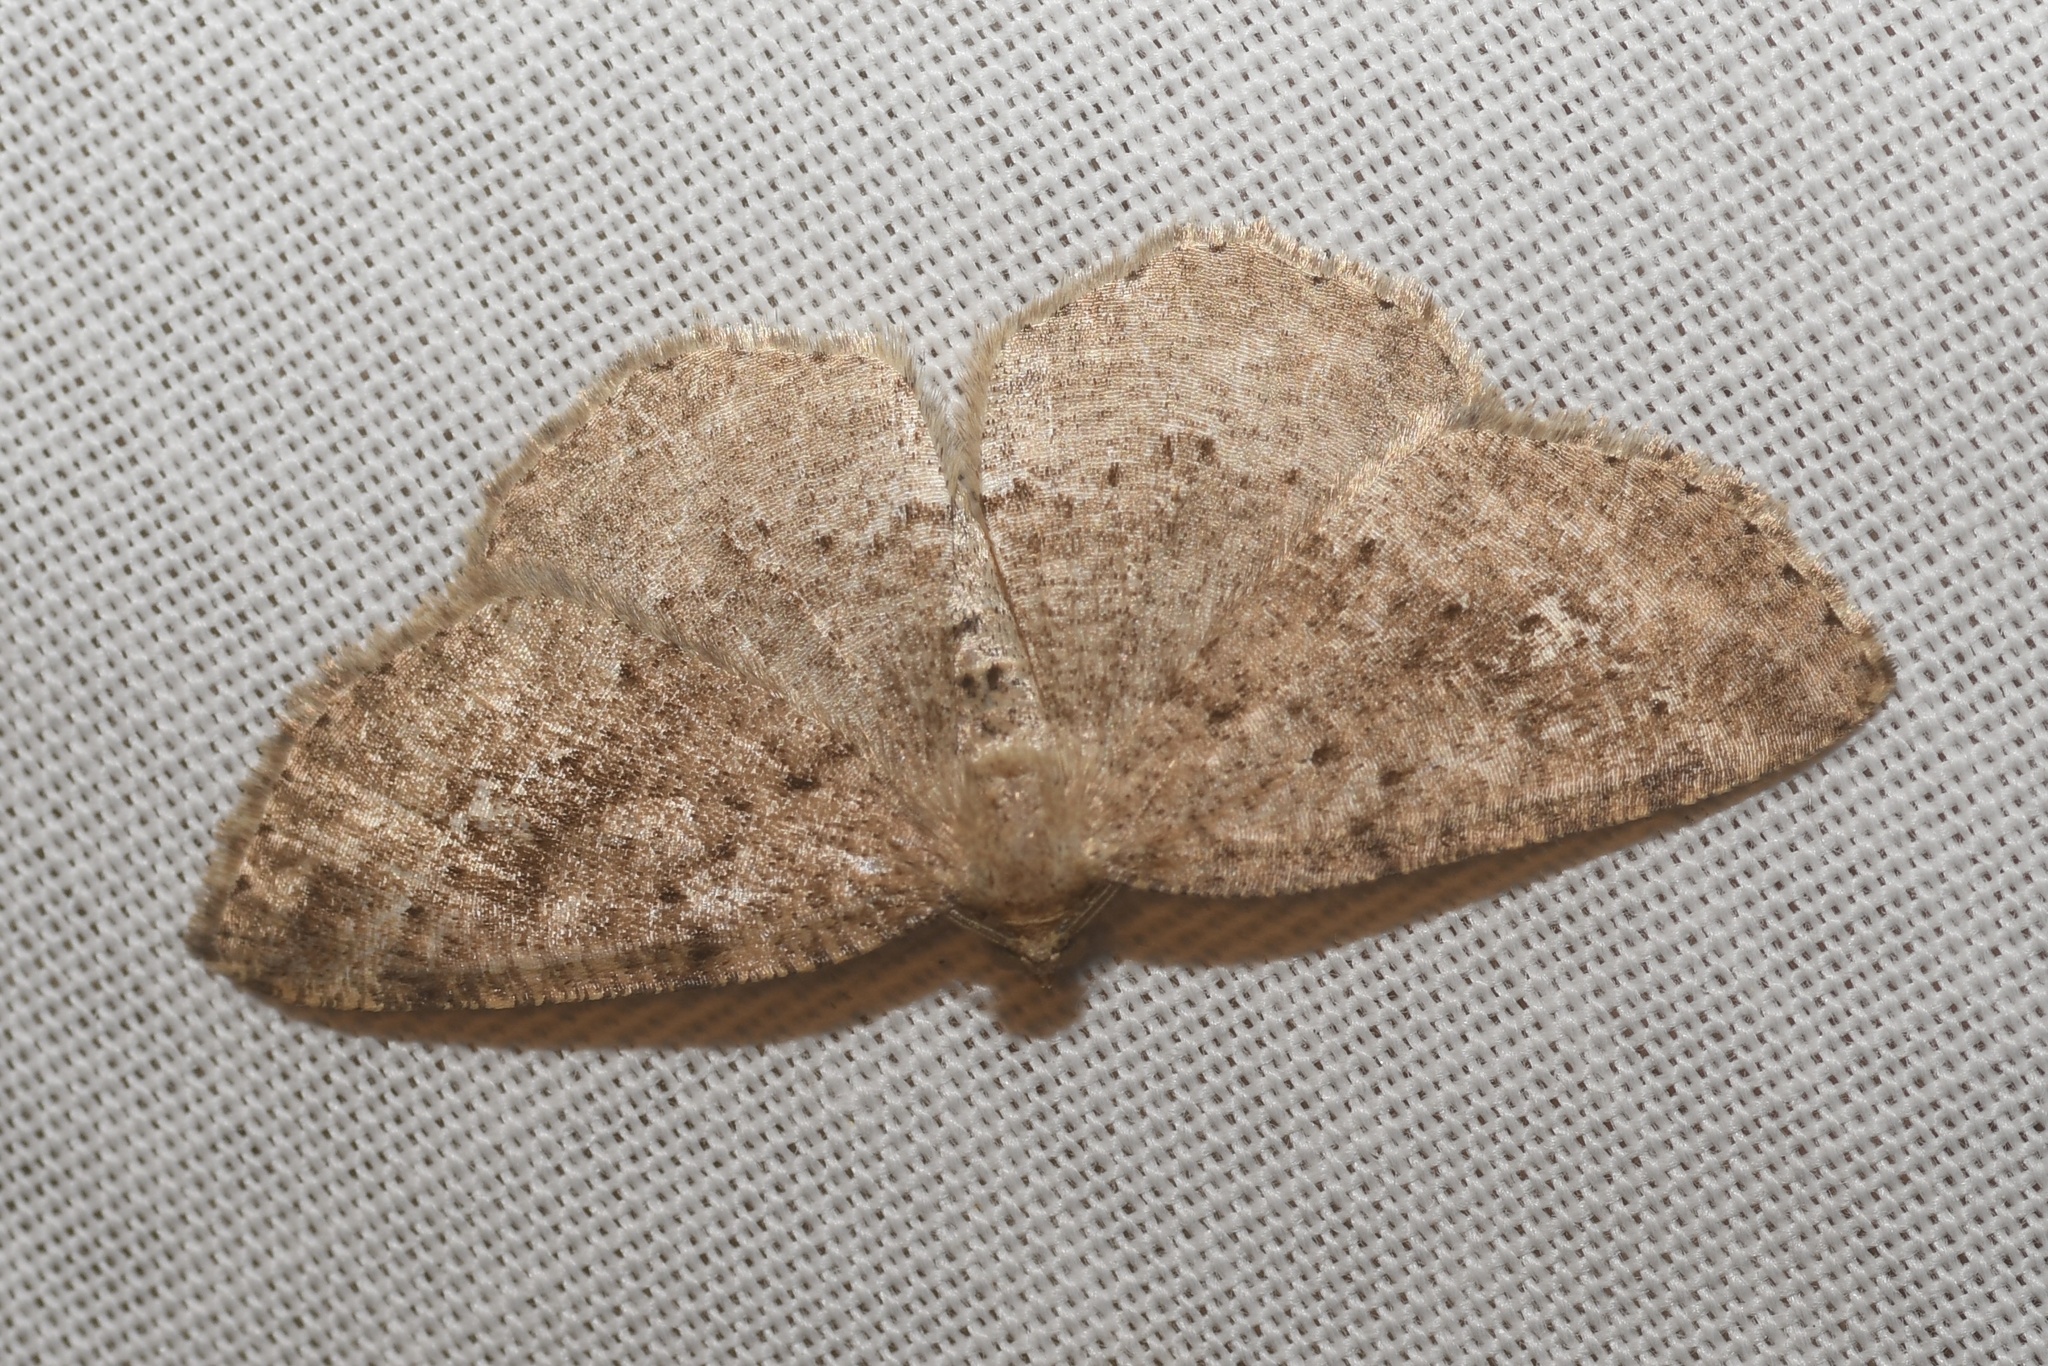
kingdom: Animalia
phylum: Arthropoda
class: Insecta
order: Lepidoptera
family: Geometridae
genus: Homochlodes
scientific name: Homochlodes fritillaria
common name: Pale homochlodes
